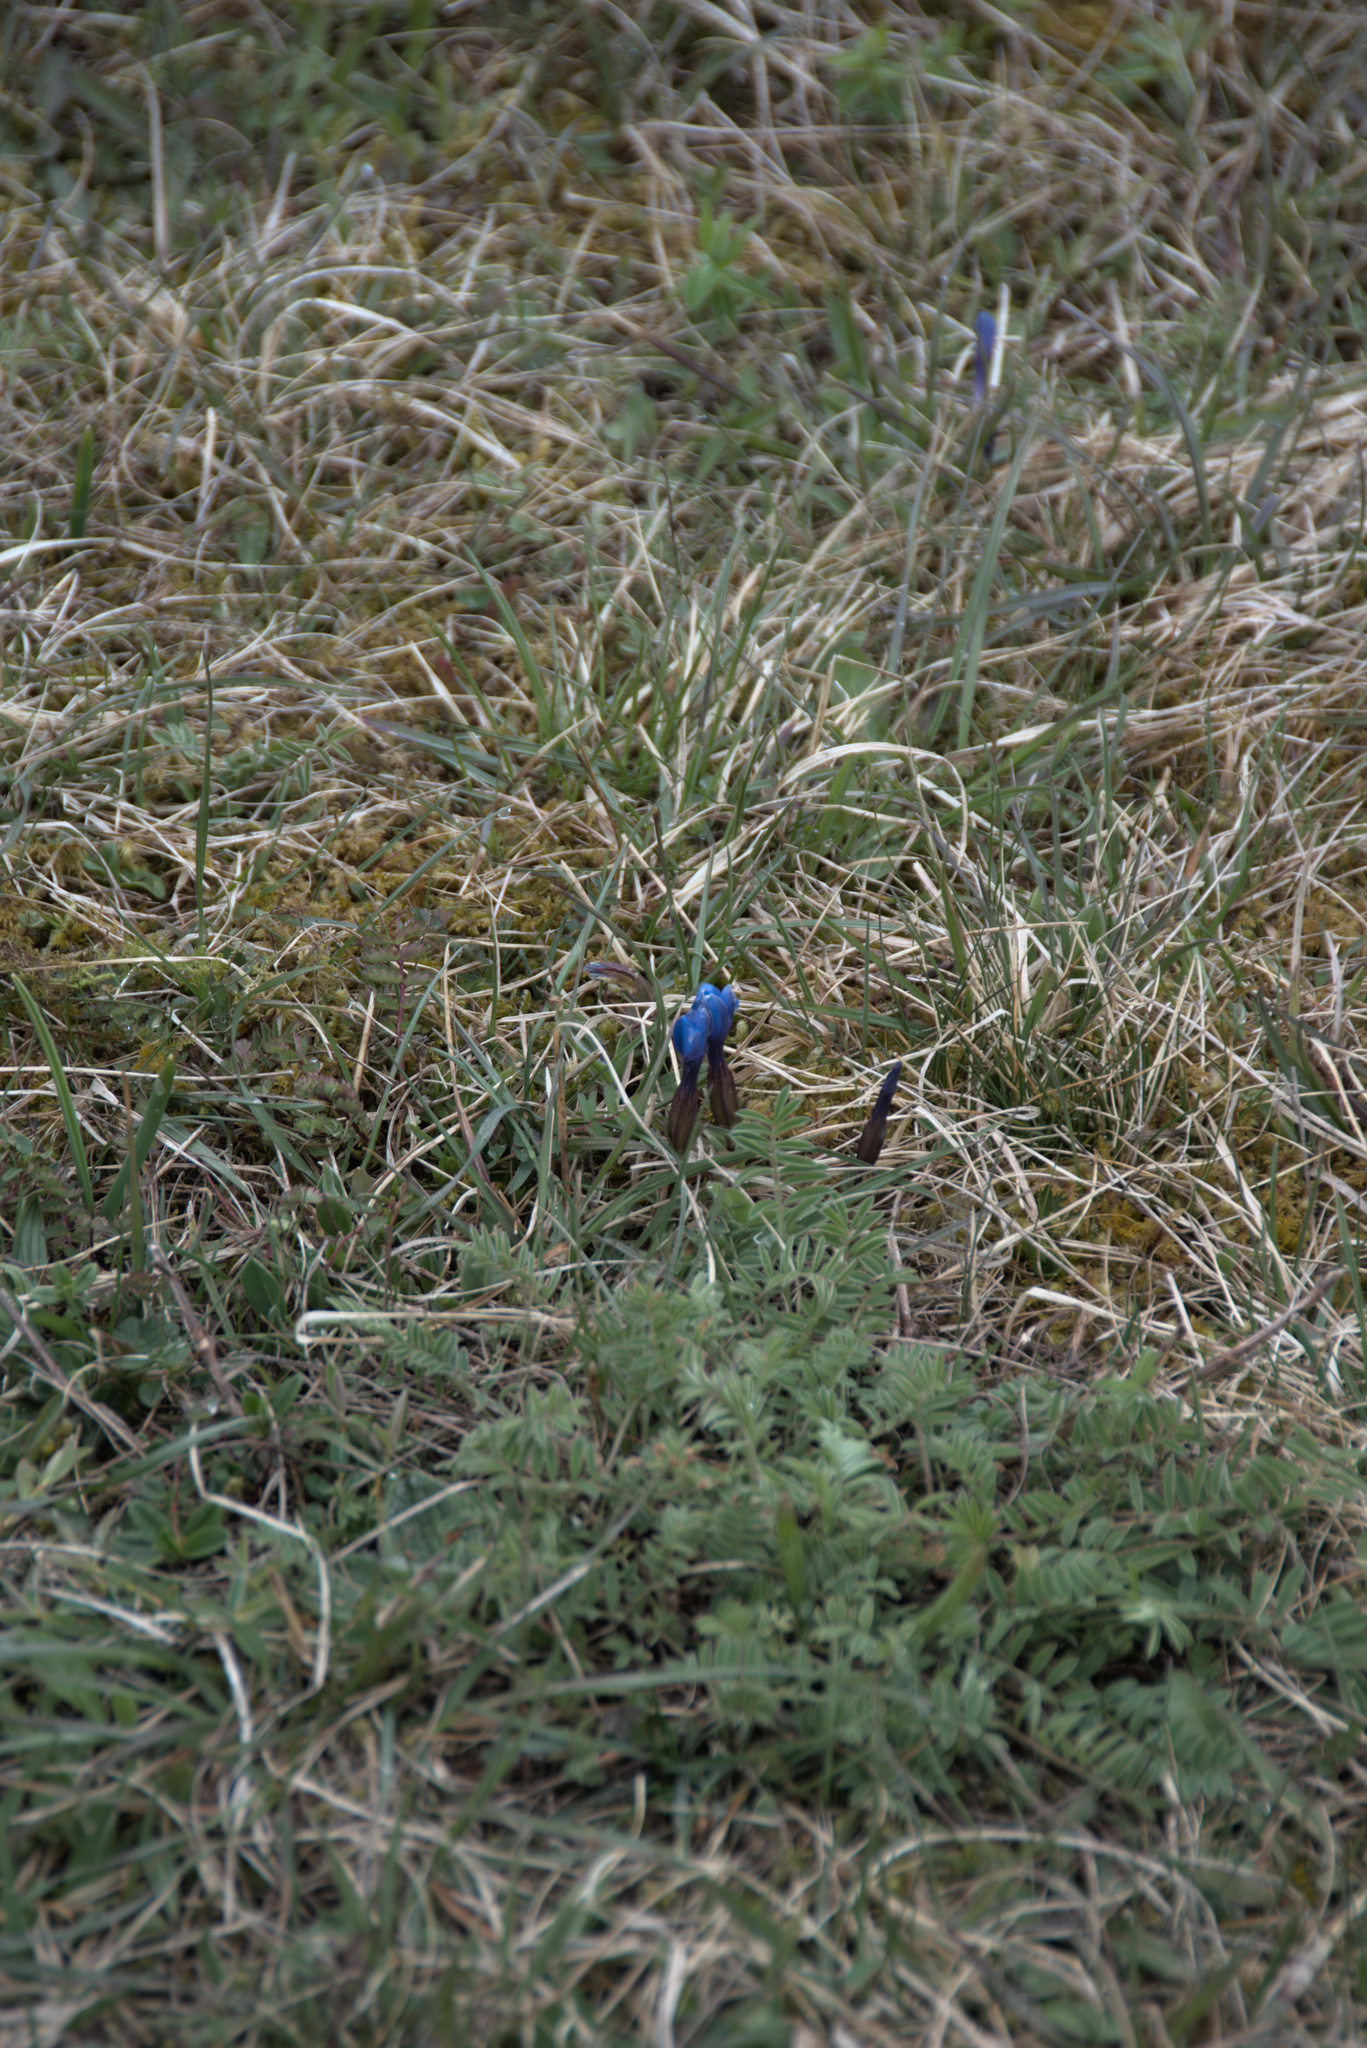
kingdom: Plantae
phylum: Tracheophyta
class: Magnoliopsida
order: Gentianales
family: Gentianaceae
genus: Gentiana
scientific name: Gentiana verna
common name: Spring gentian
